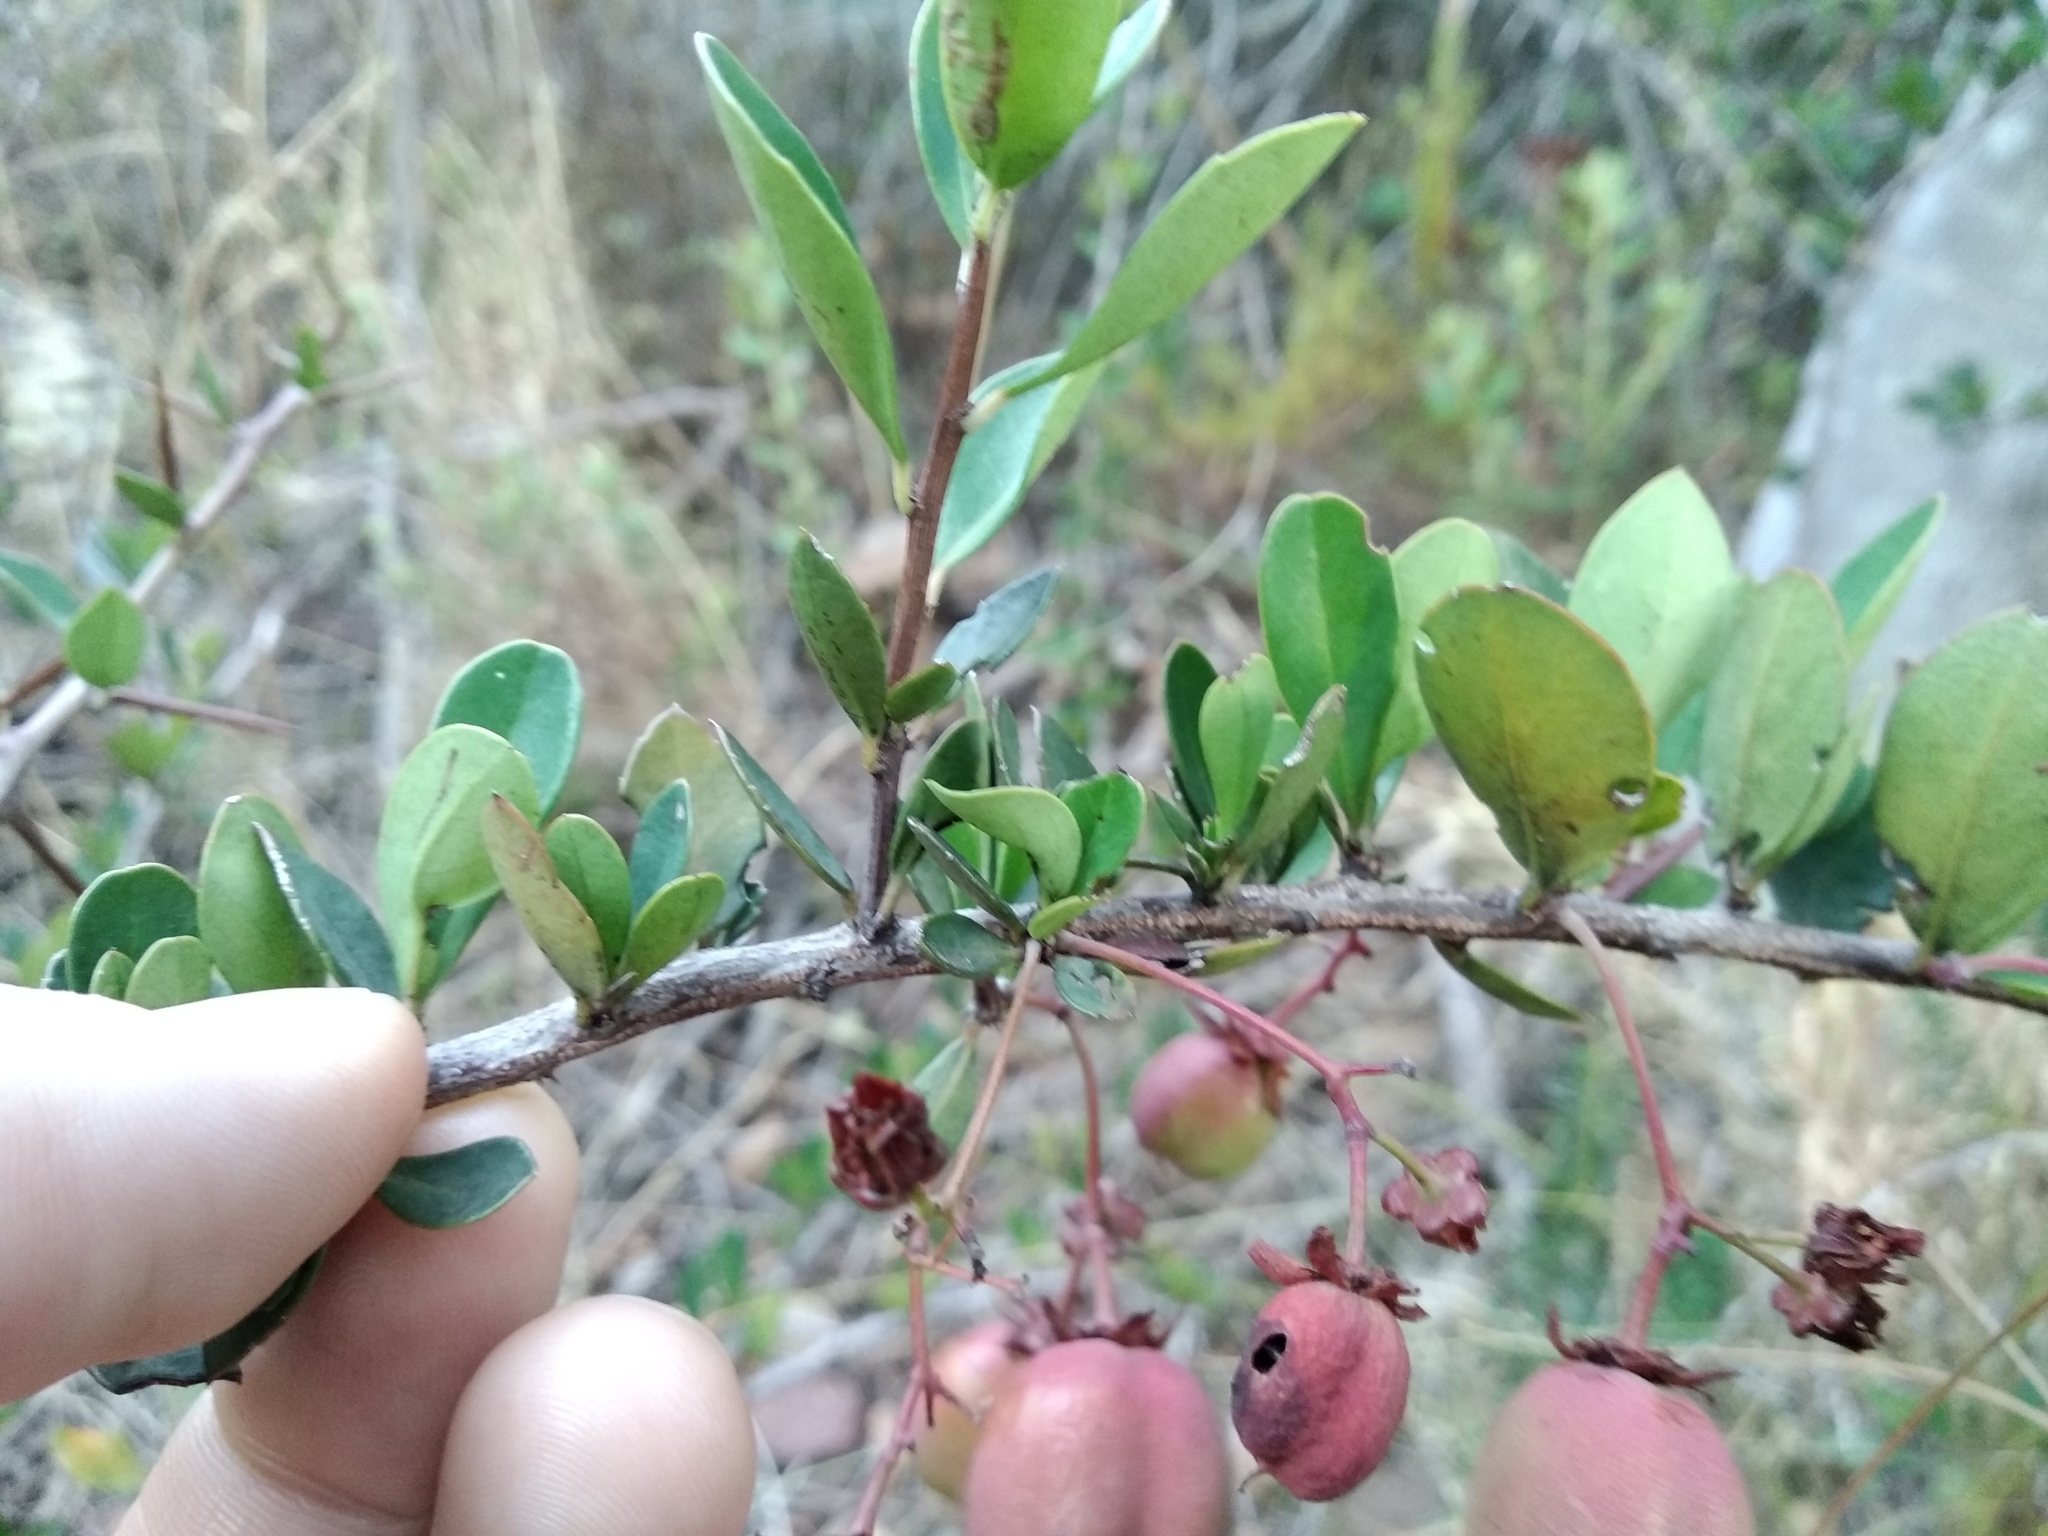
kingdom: Plantae
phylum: Tracheophyta
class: Magnoliopsida
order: Celastrales
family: Celastraceae
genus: Putterlickia
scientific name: Putterlickia pyracantha
